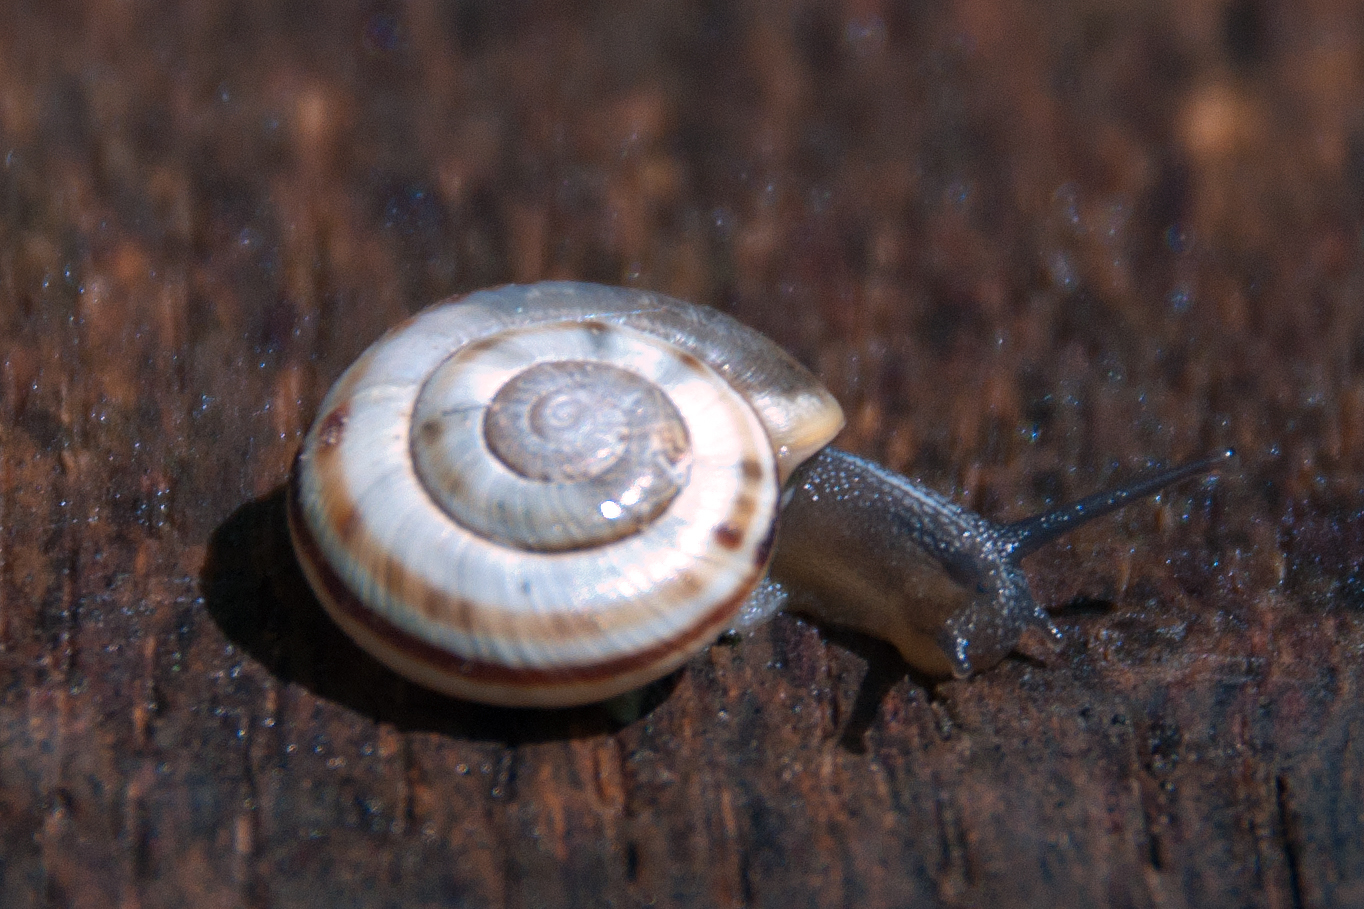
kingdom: Animalia
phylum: Mollusca
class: Gastropoda
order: Stylommatophora
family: Helicidae
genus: Kosicia
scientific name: Kosicia intermedia
